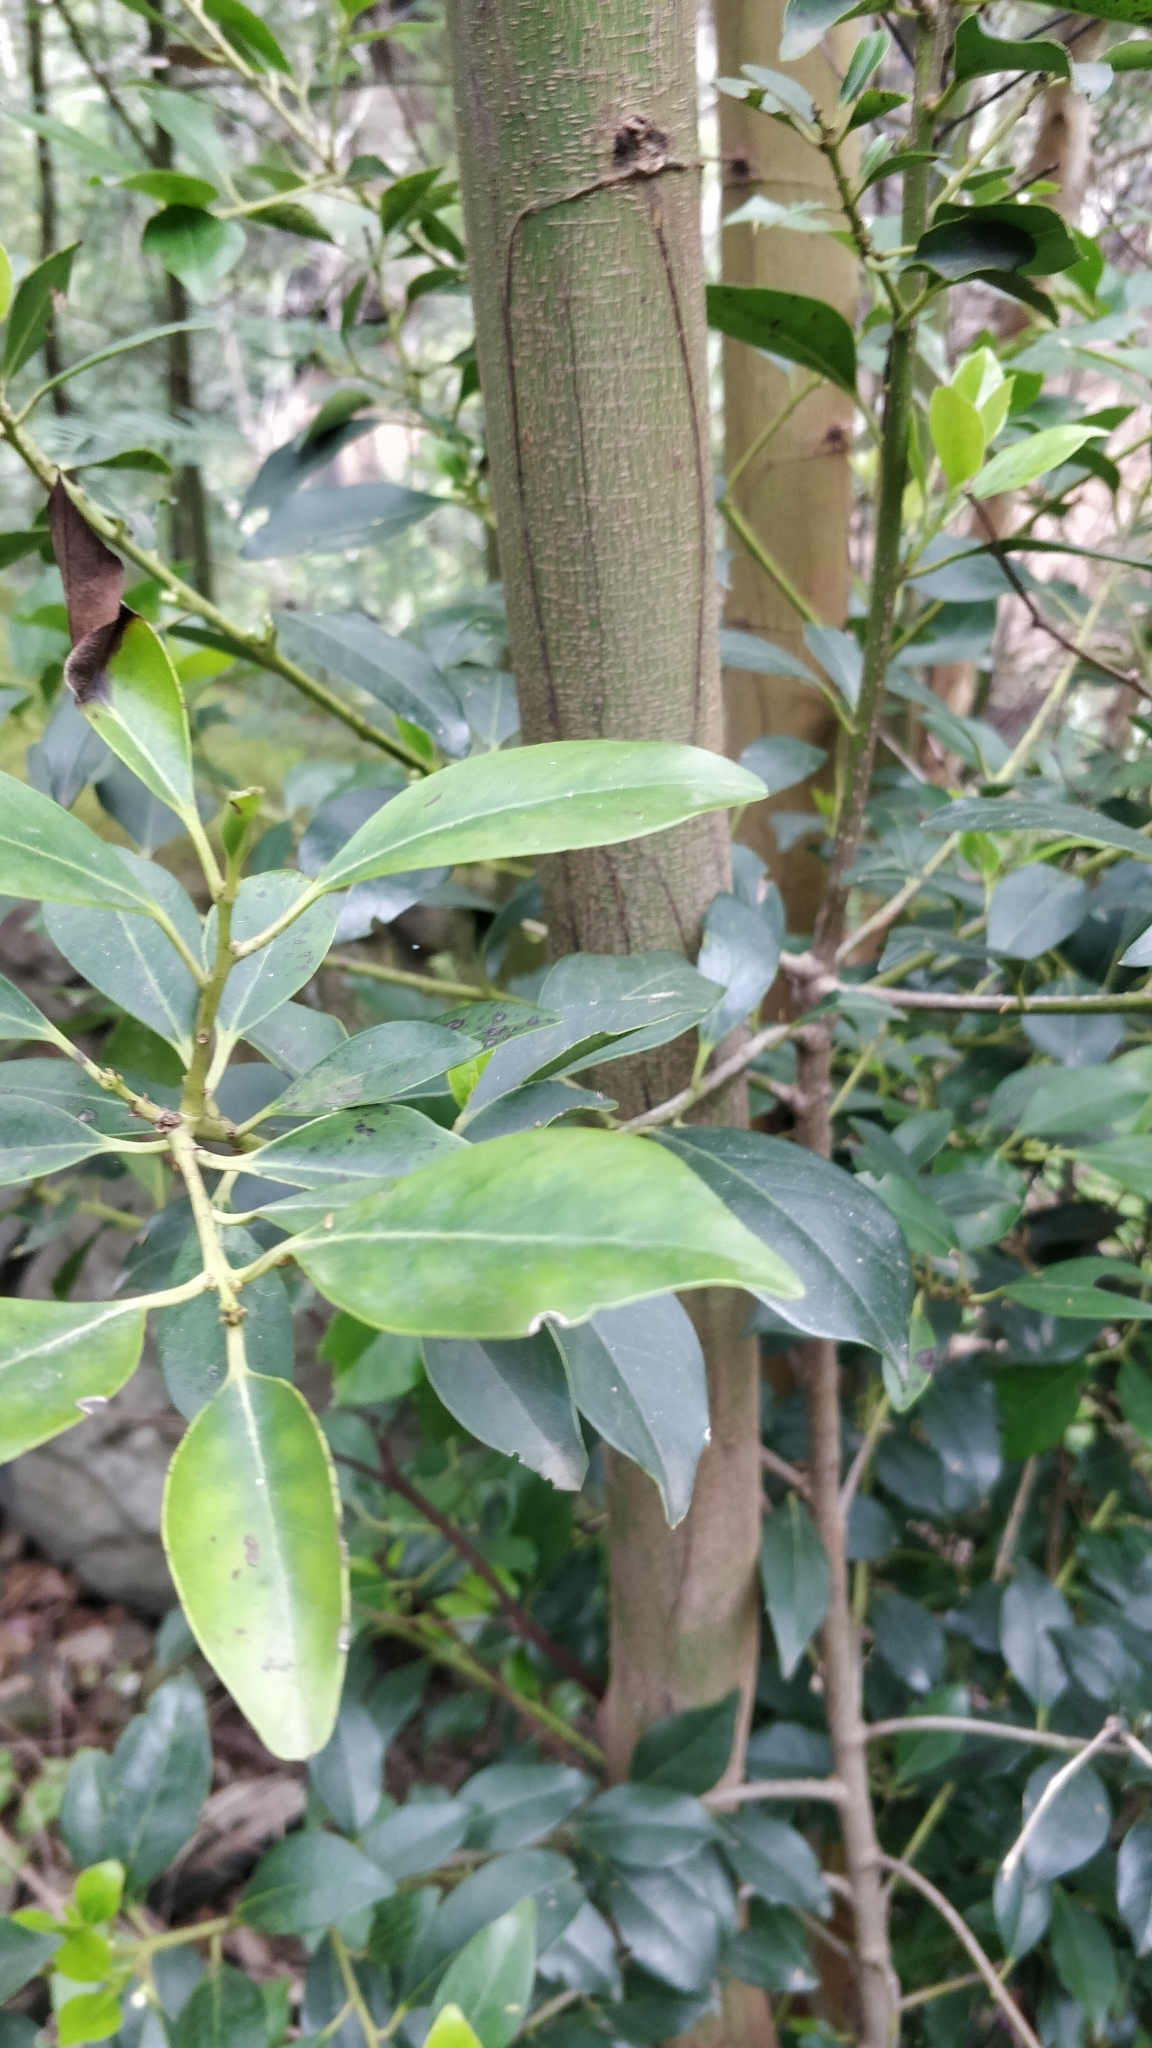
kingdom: Plantae
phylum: Tracheophyta
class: Magnoliopsida
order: Aquifoliales
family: Aquifoliaceae
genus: Ilex
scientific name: Ilex canariensis
